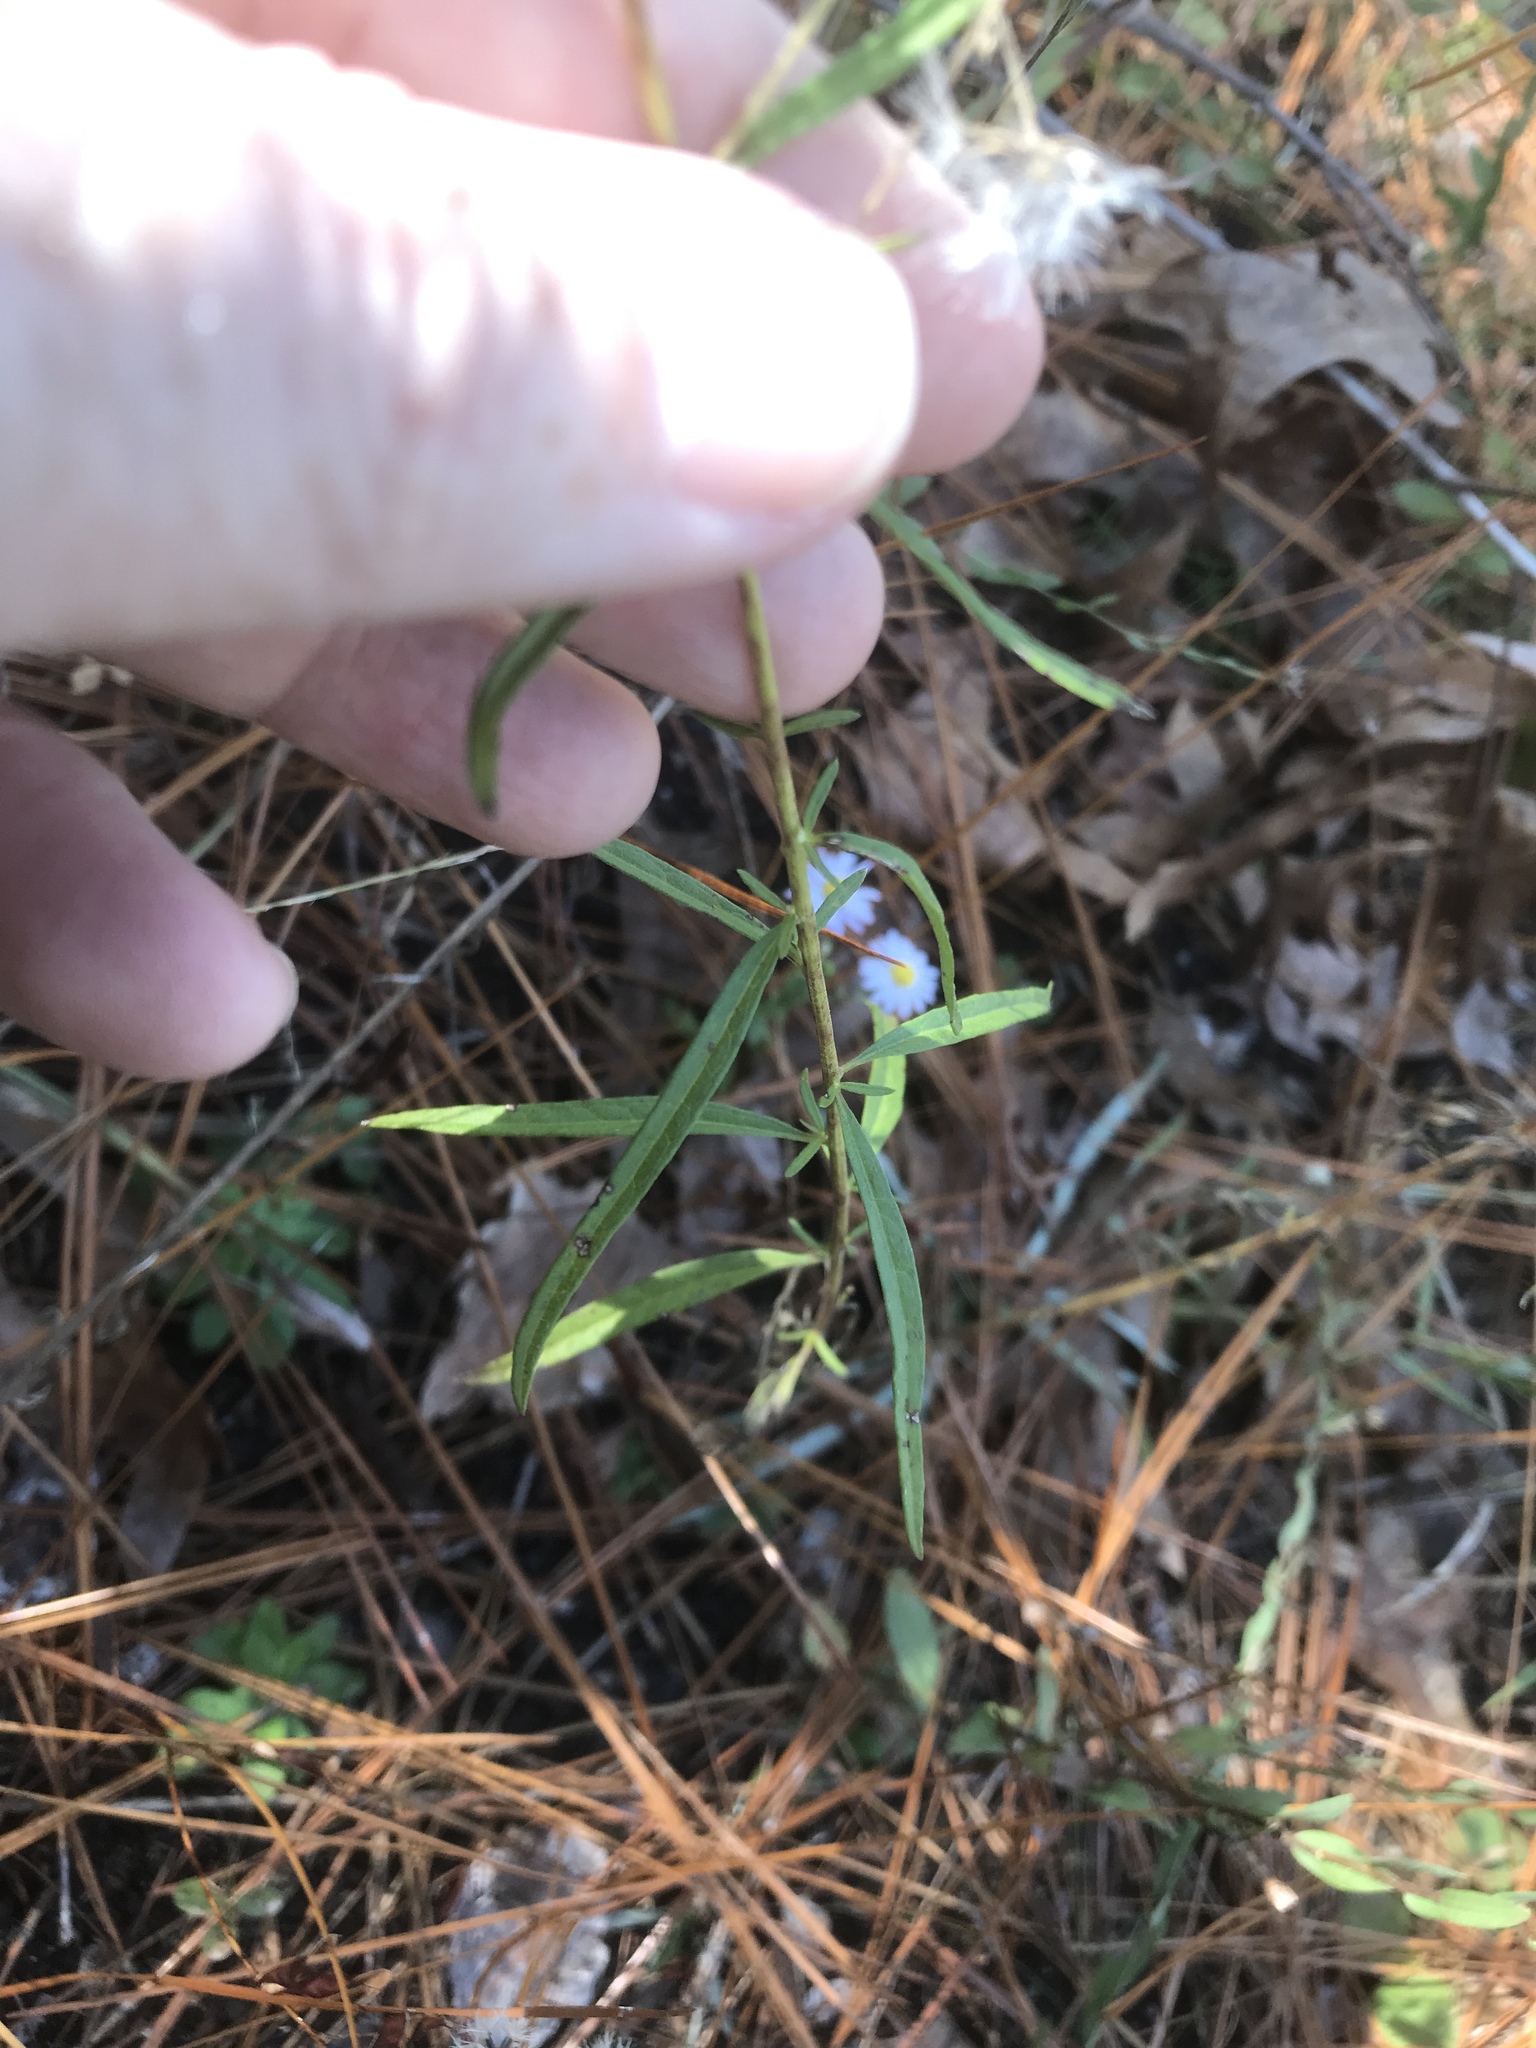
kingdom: Plantae
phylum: Tracheophyta
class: Magnoliopsida
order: Asterales
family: Asteraceae
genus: Brickellia
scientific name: Brickellia eupatorioides
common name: False boneset
